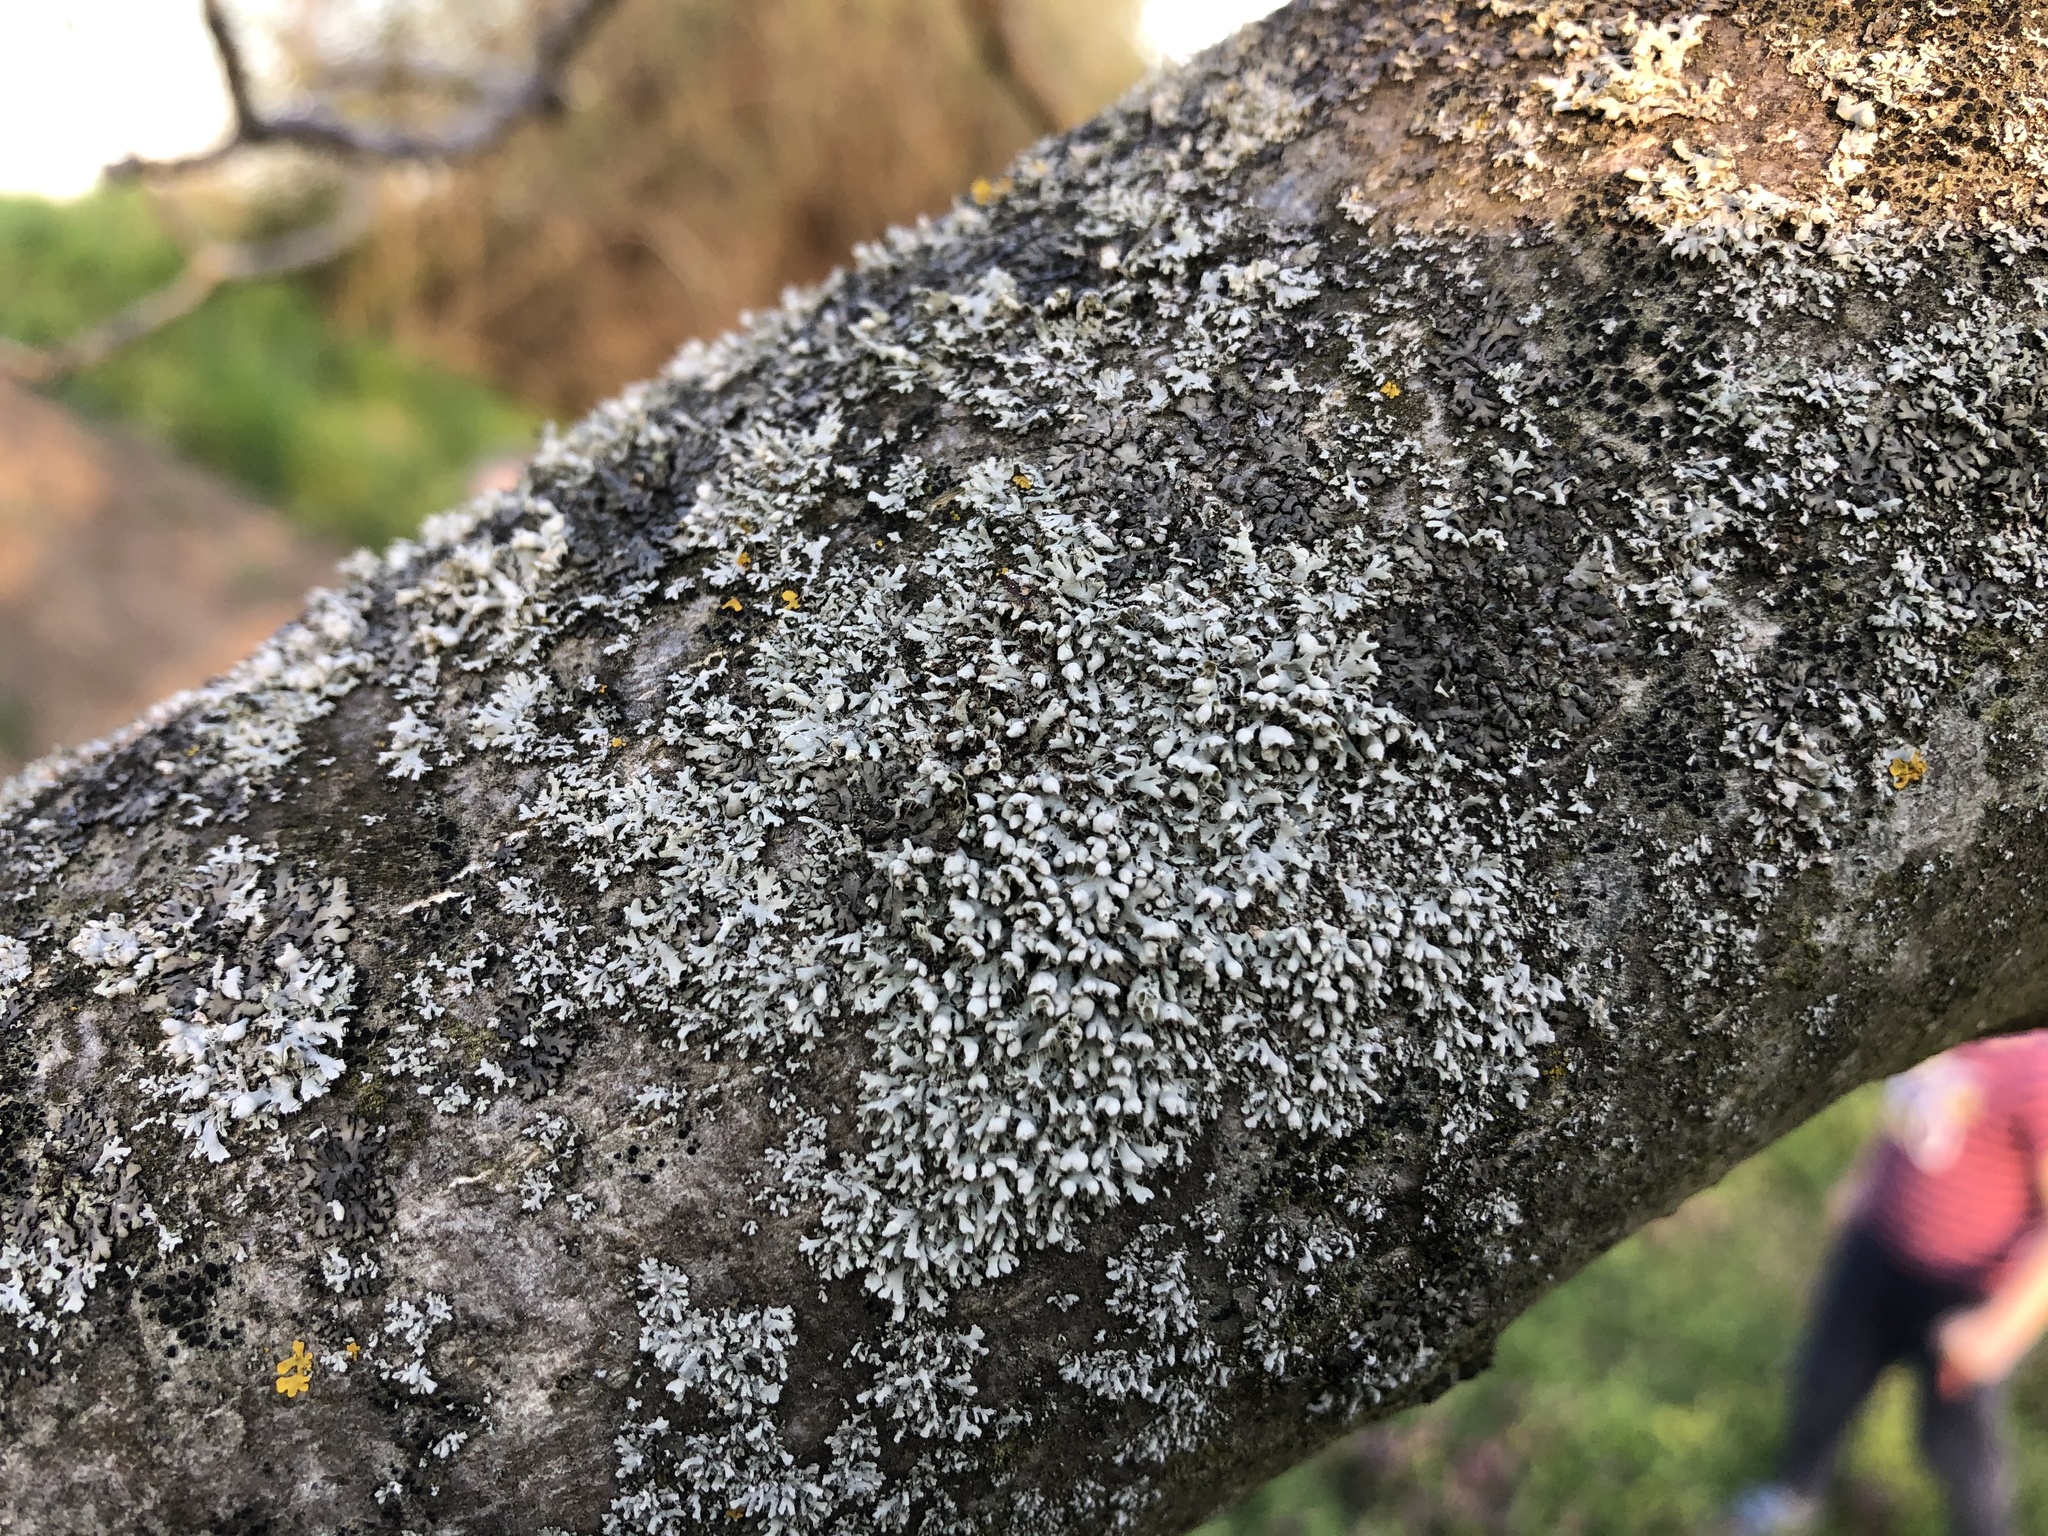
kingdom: Fungi
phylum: Ascomycota
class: Lecanoromycetes
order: Caliciales
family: Physciaceae
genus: Physcia
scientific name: Physcia adscendens
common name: Hooded rosette lichen
